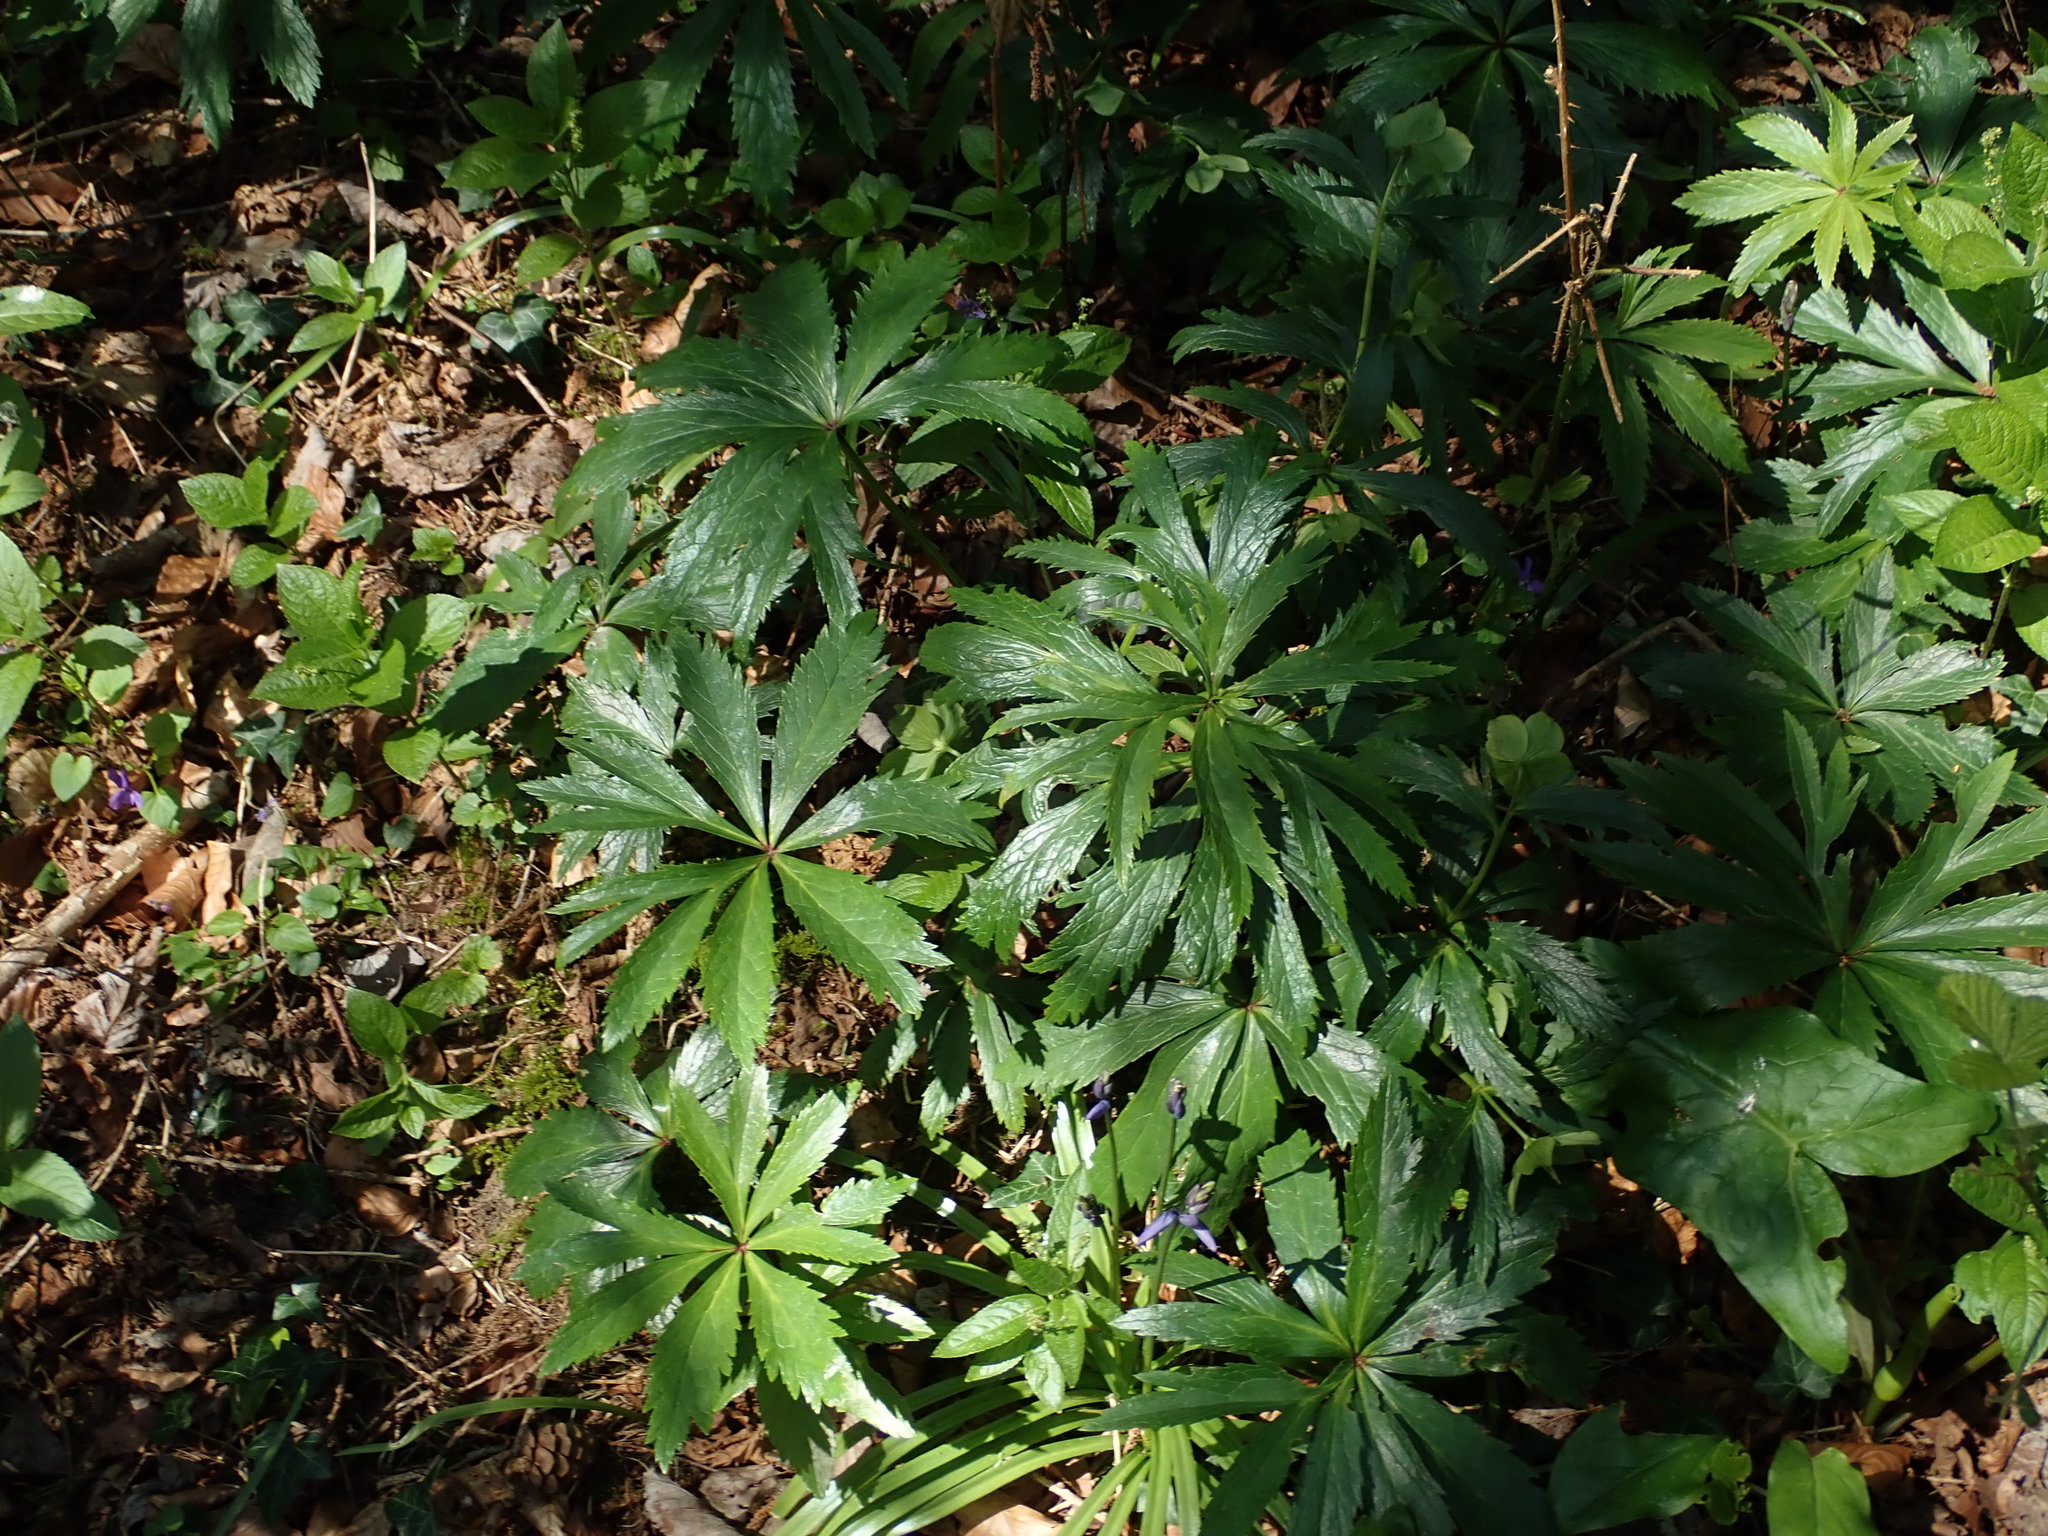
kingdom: Plantae
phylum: Tracheophyta
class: Magnoliopsida
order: Ranunculales
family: Ranunculaceae
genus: Helleborus
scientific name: Helleborus viridis
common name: Green hellebore
